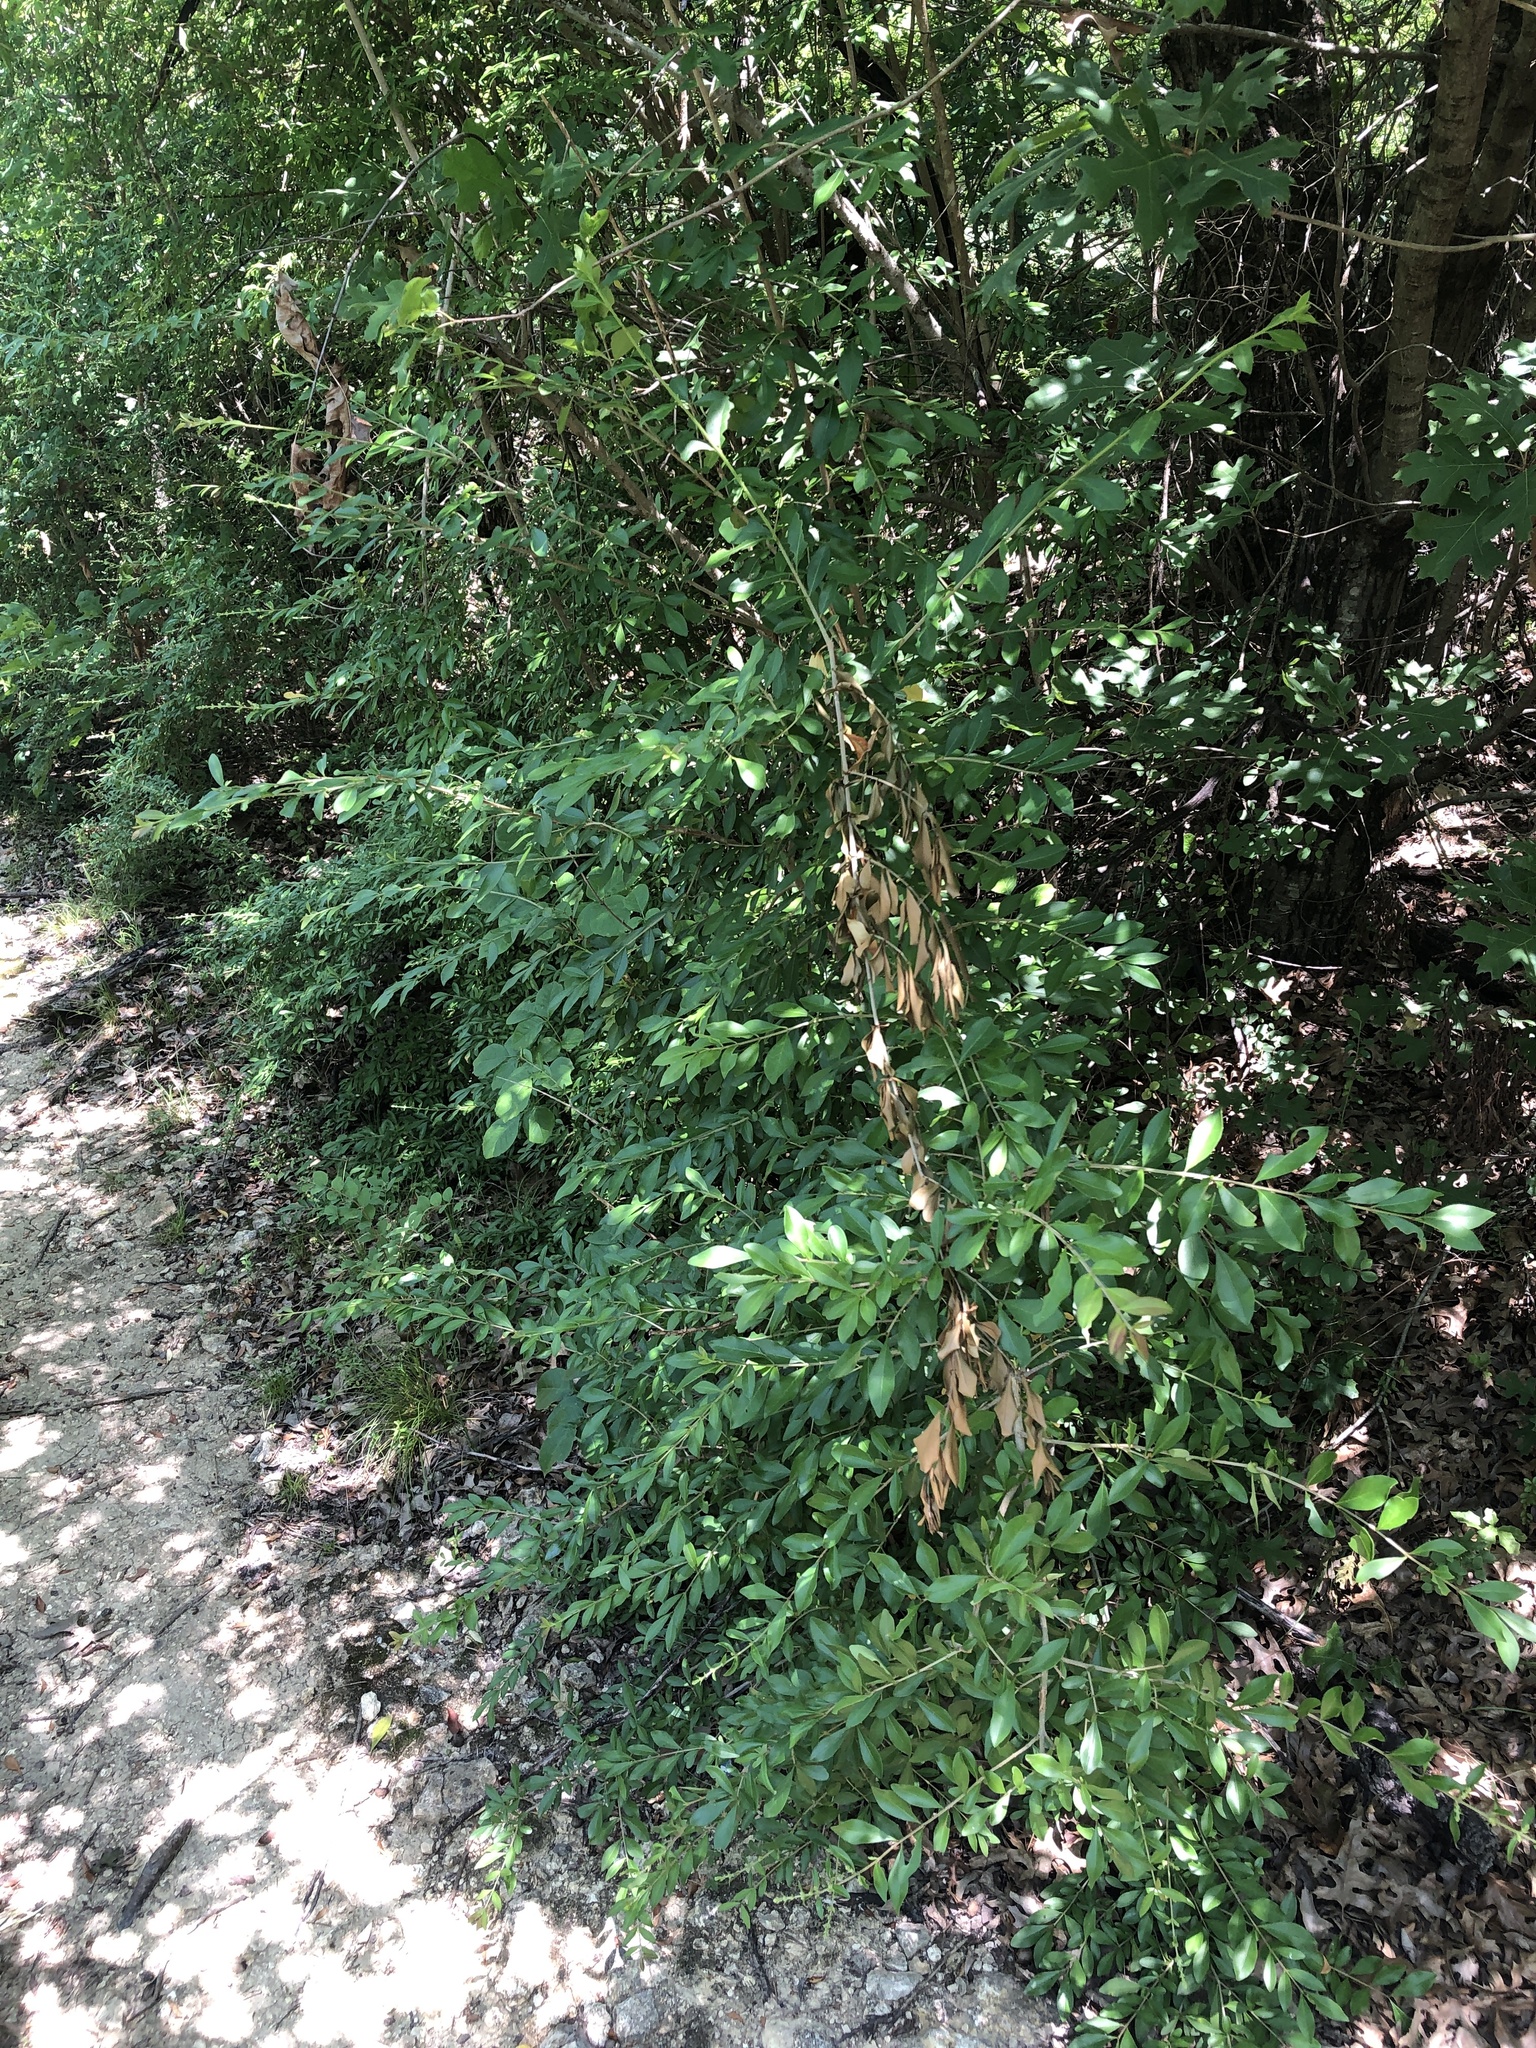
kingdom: Plantae
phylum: Tracheophyta
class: Magnoliopsida
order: Lamiales
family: Oleaceae
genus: Ligustrum
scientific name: Ligustrum quihoui
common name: Waxyleaf privet
